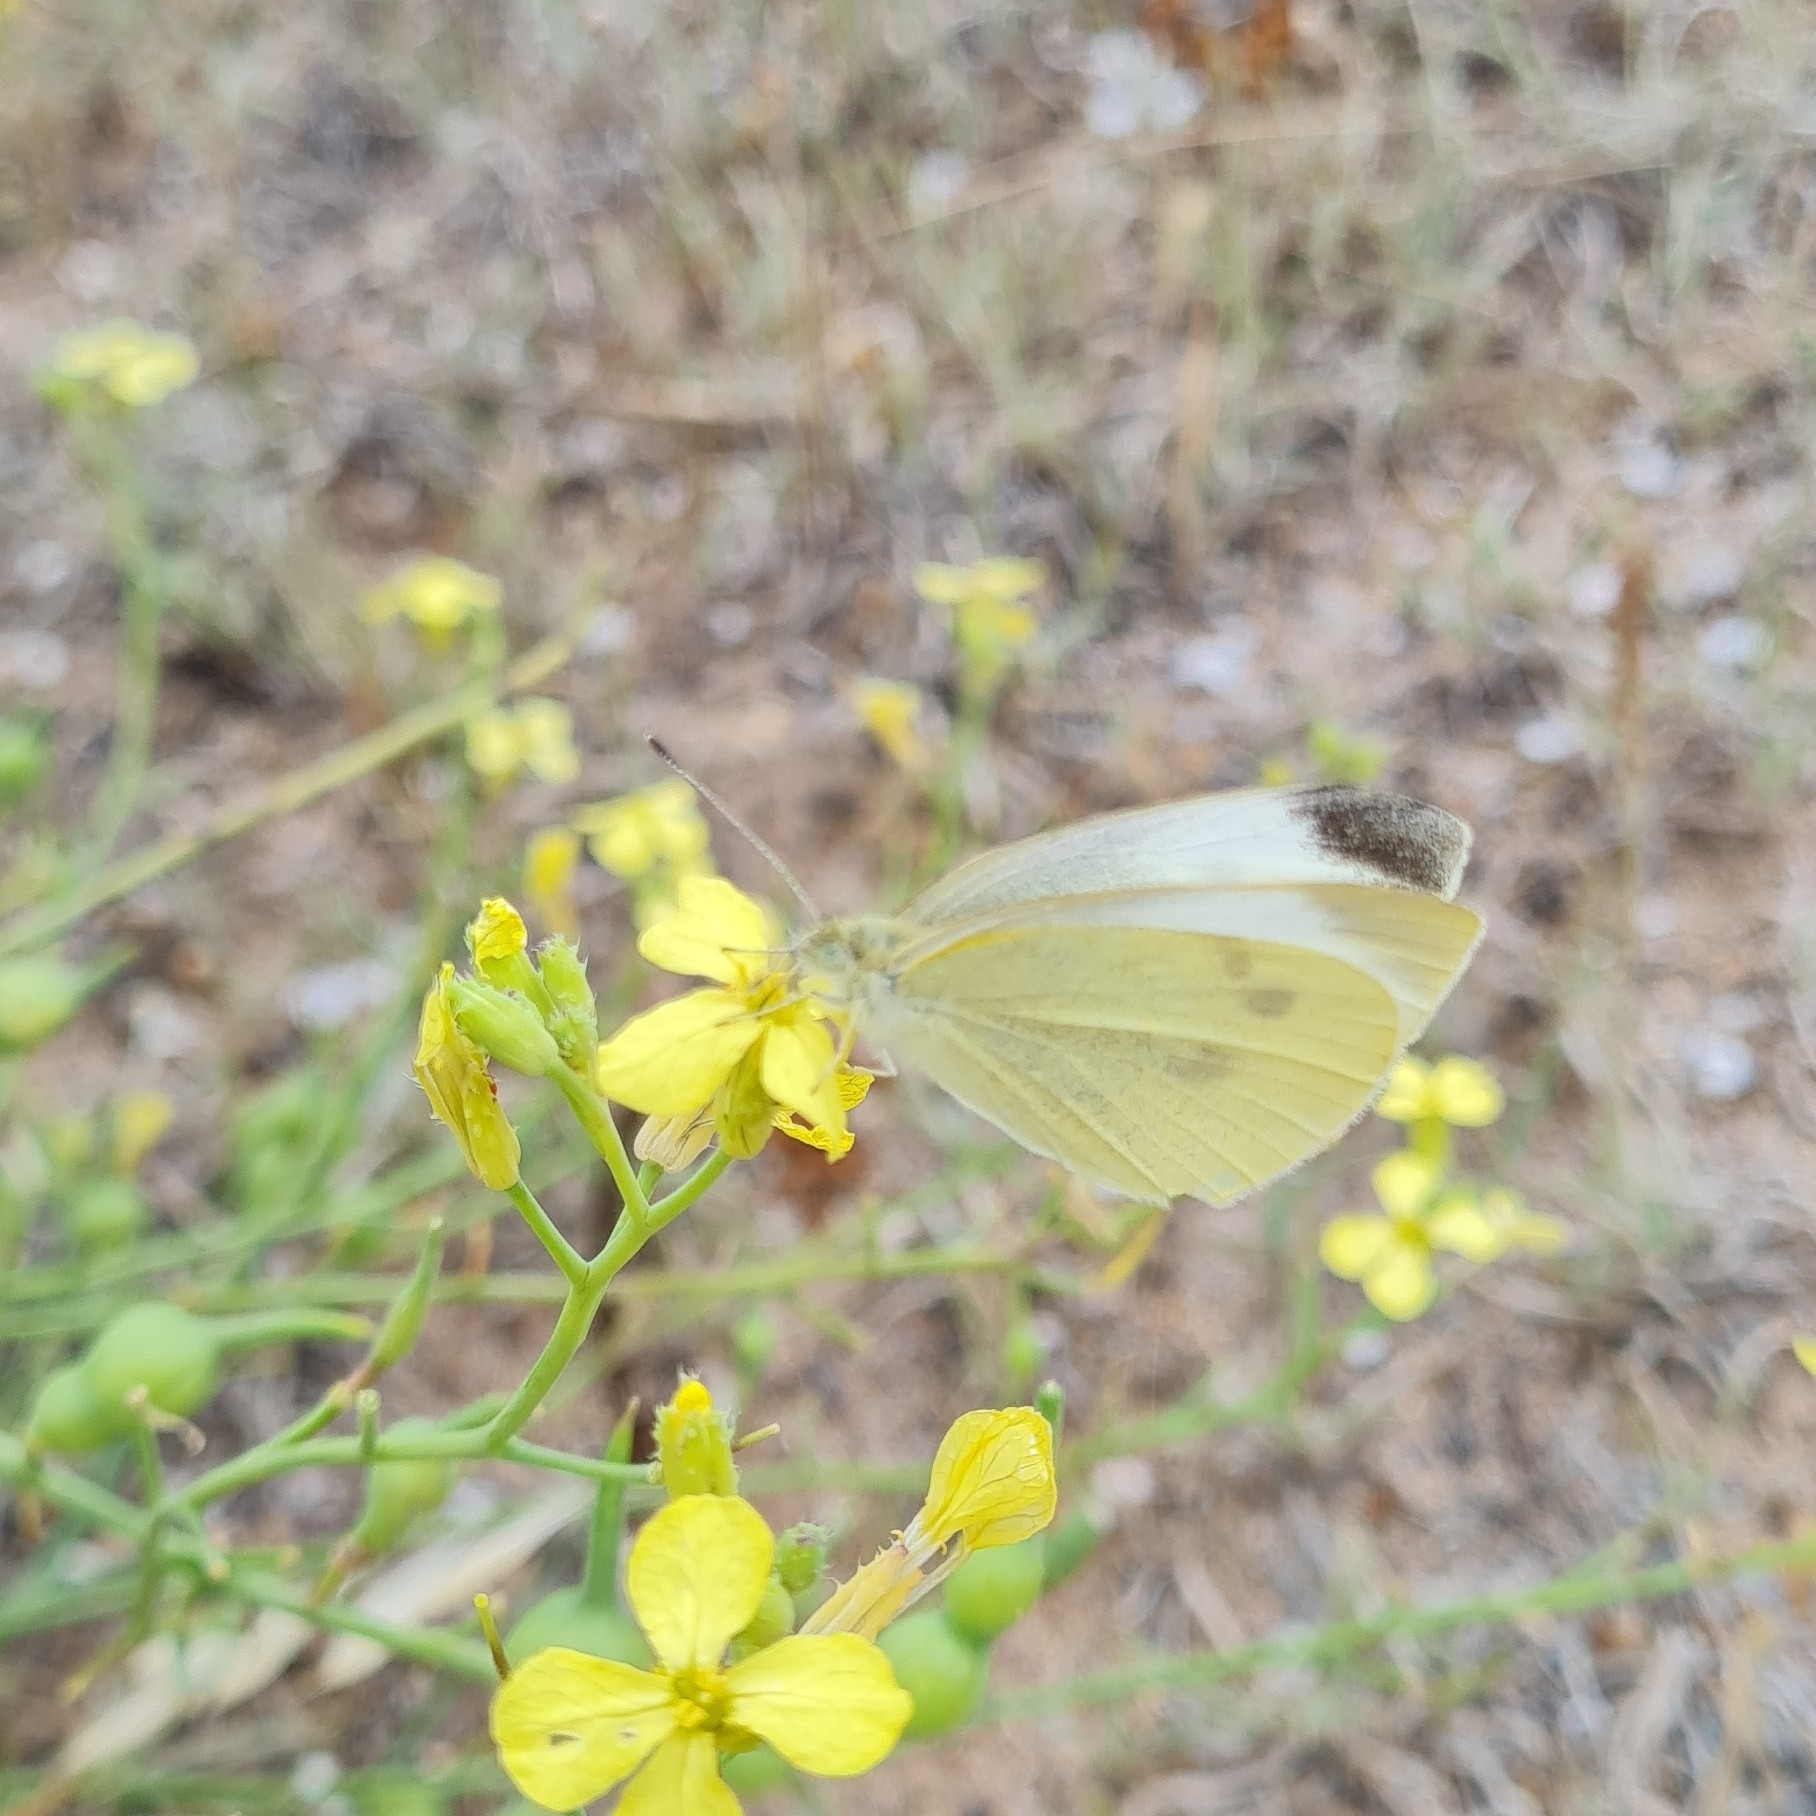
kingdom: Animalia
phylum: Arthropoda
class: Insecta
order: Lepidoptera
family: Pieridae
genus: Pieris
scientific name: Pieris rapae
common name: Small white
